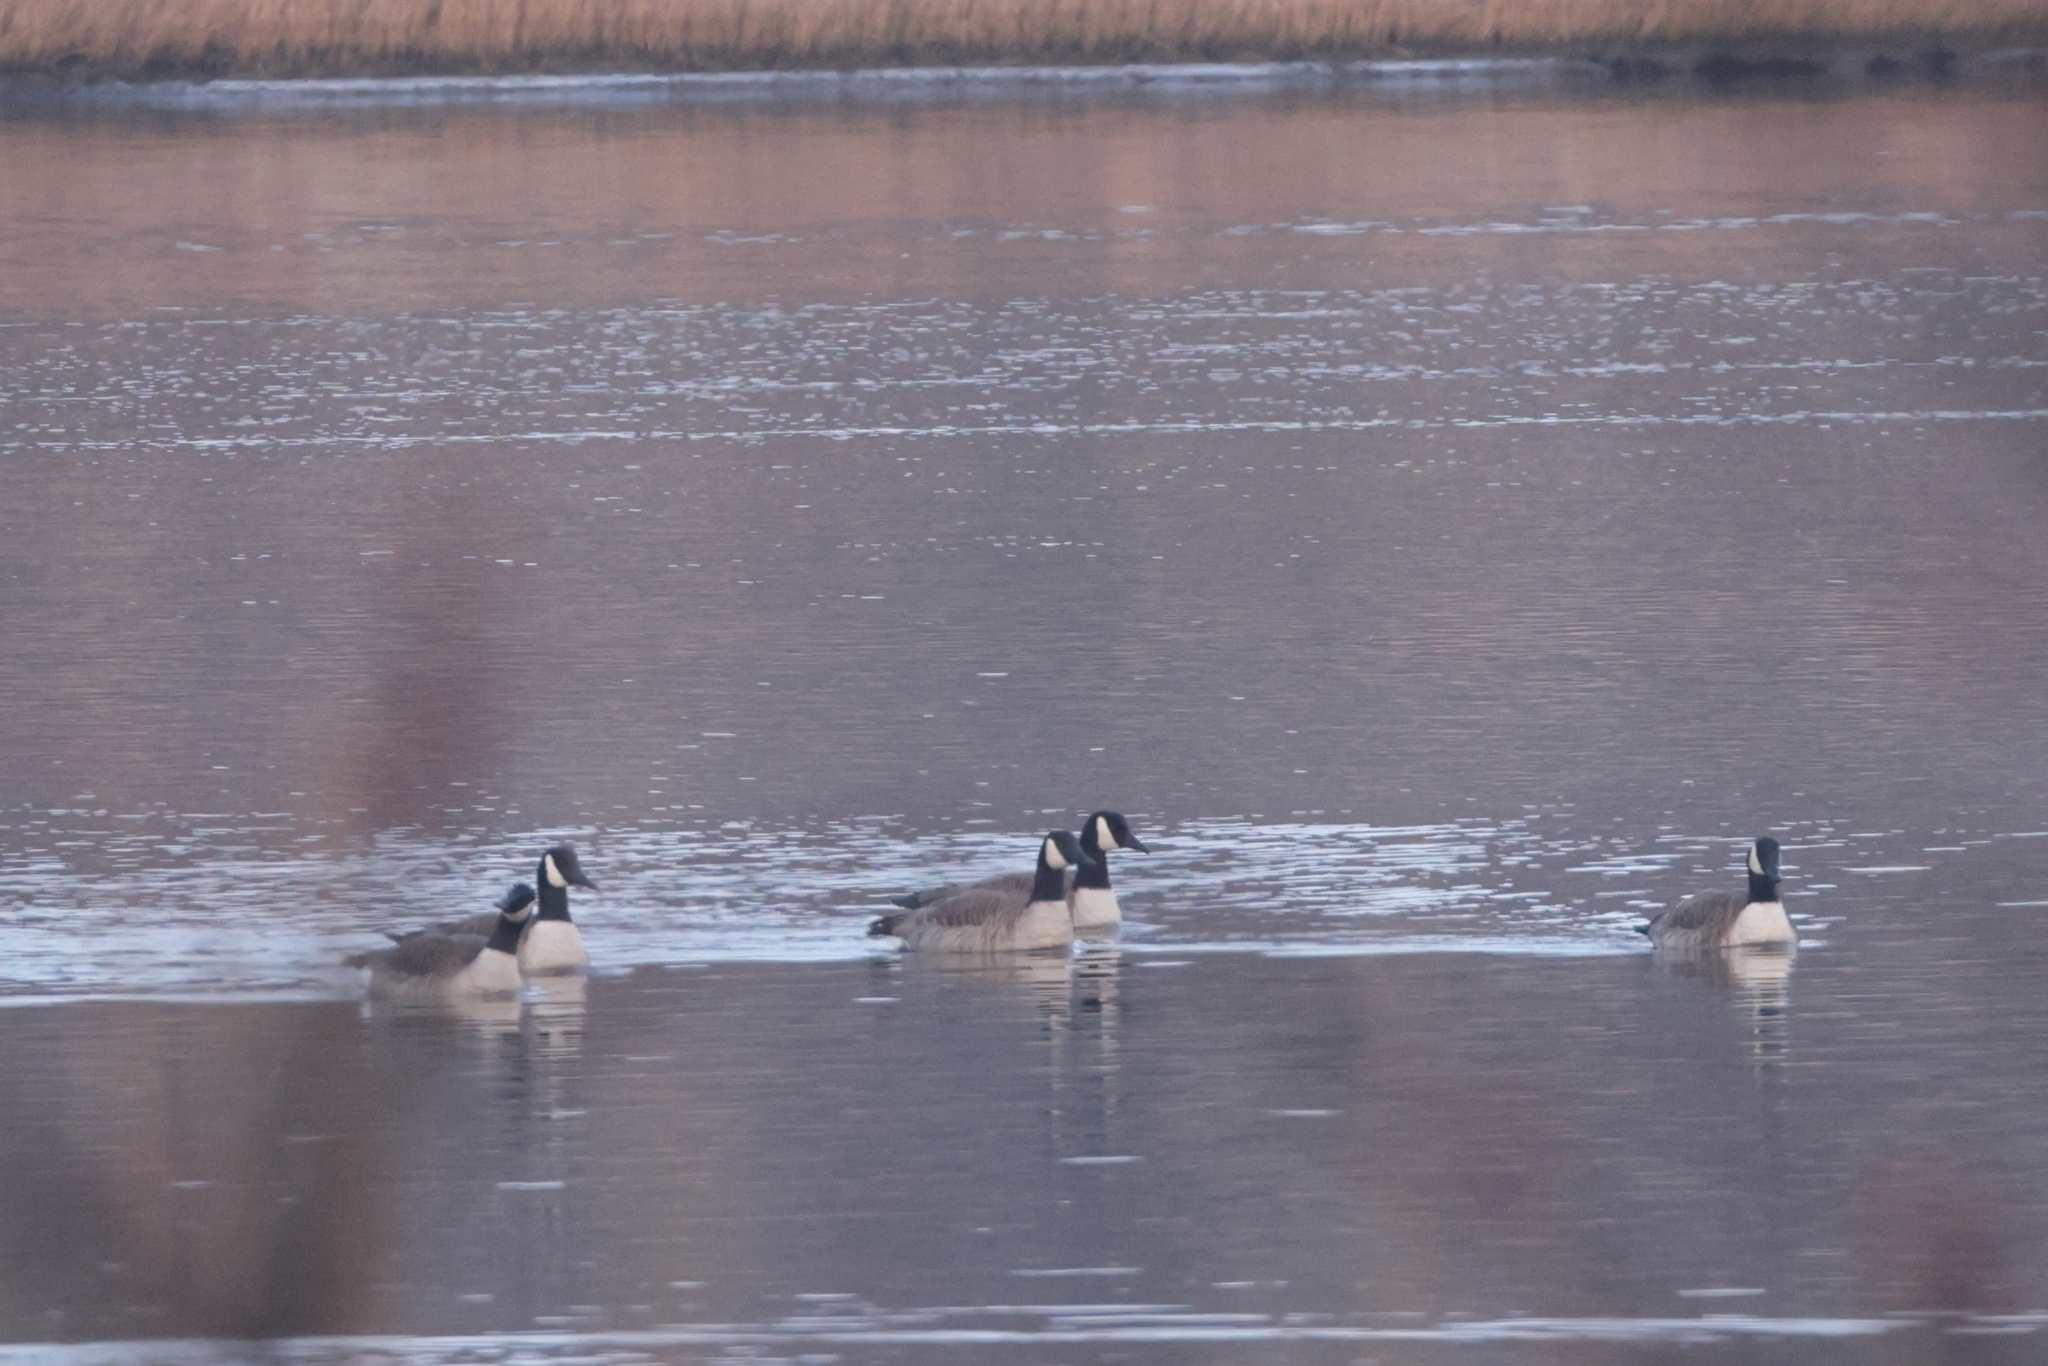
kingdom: Animalia
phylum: Chordata
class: Aves
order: Anseriformes
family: Anatidae
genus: Branta
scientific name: Branta canadensis
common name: Canada goose
